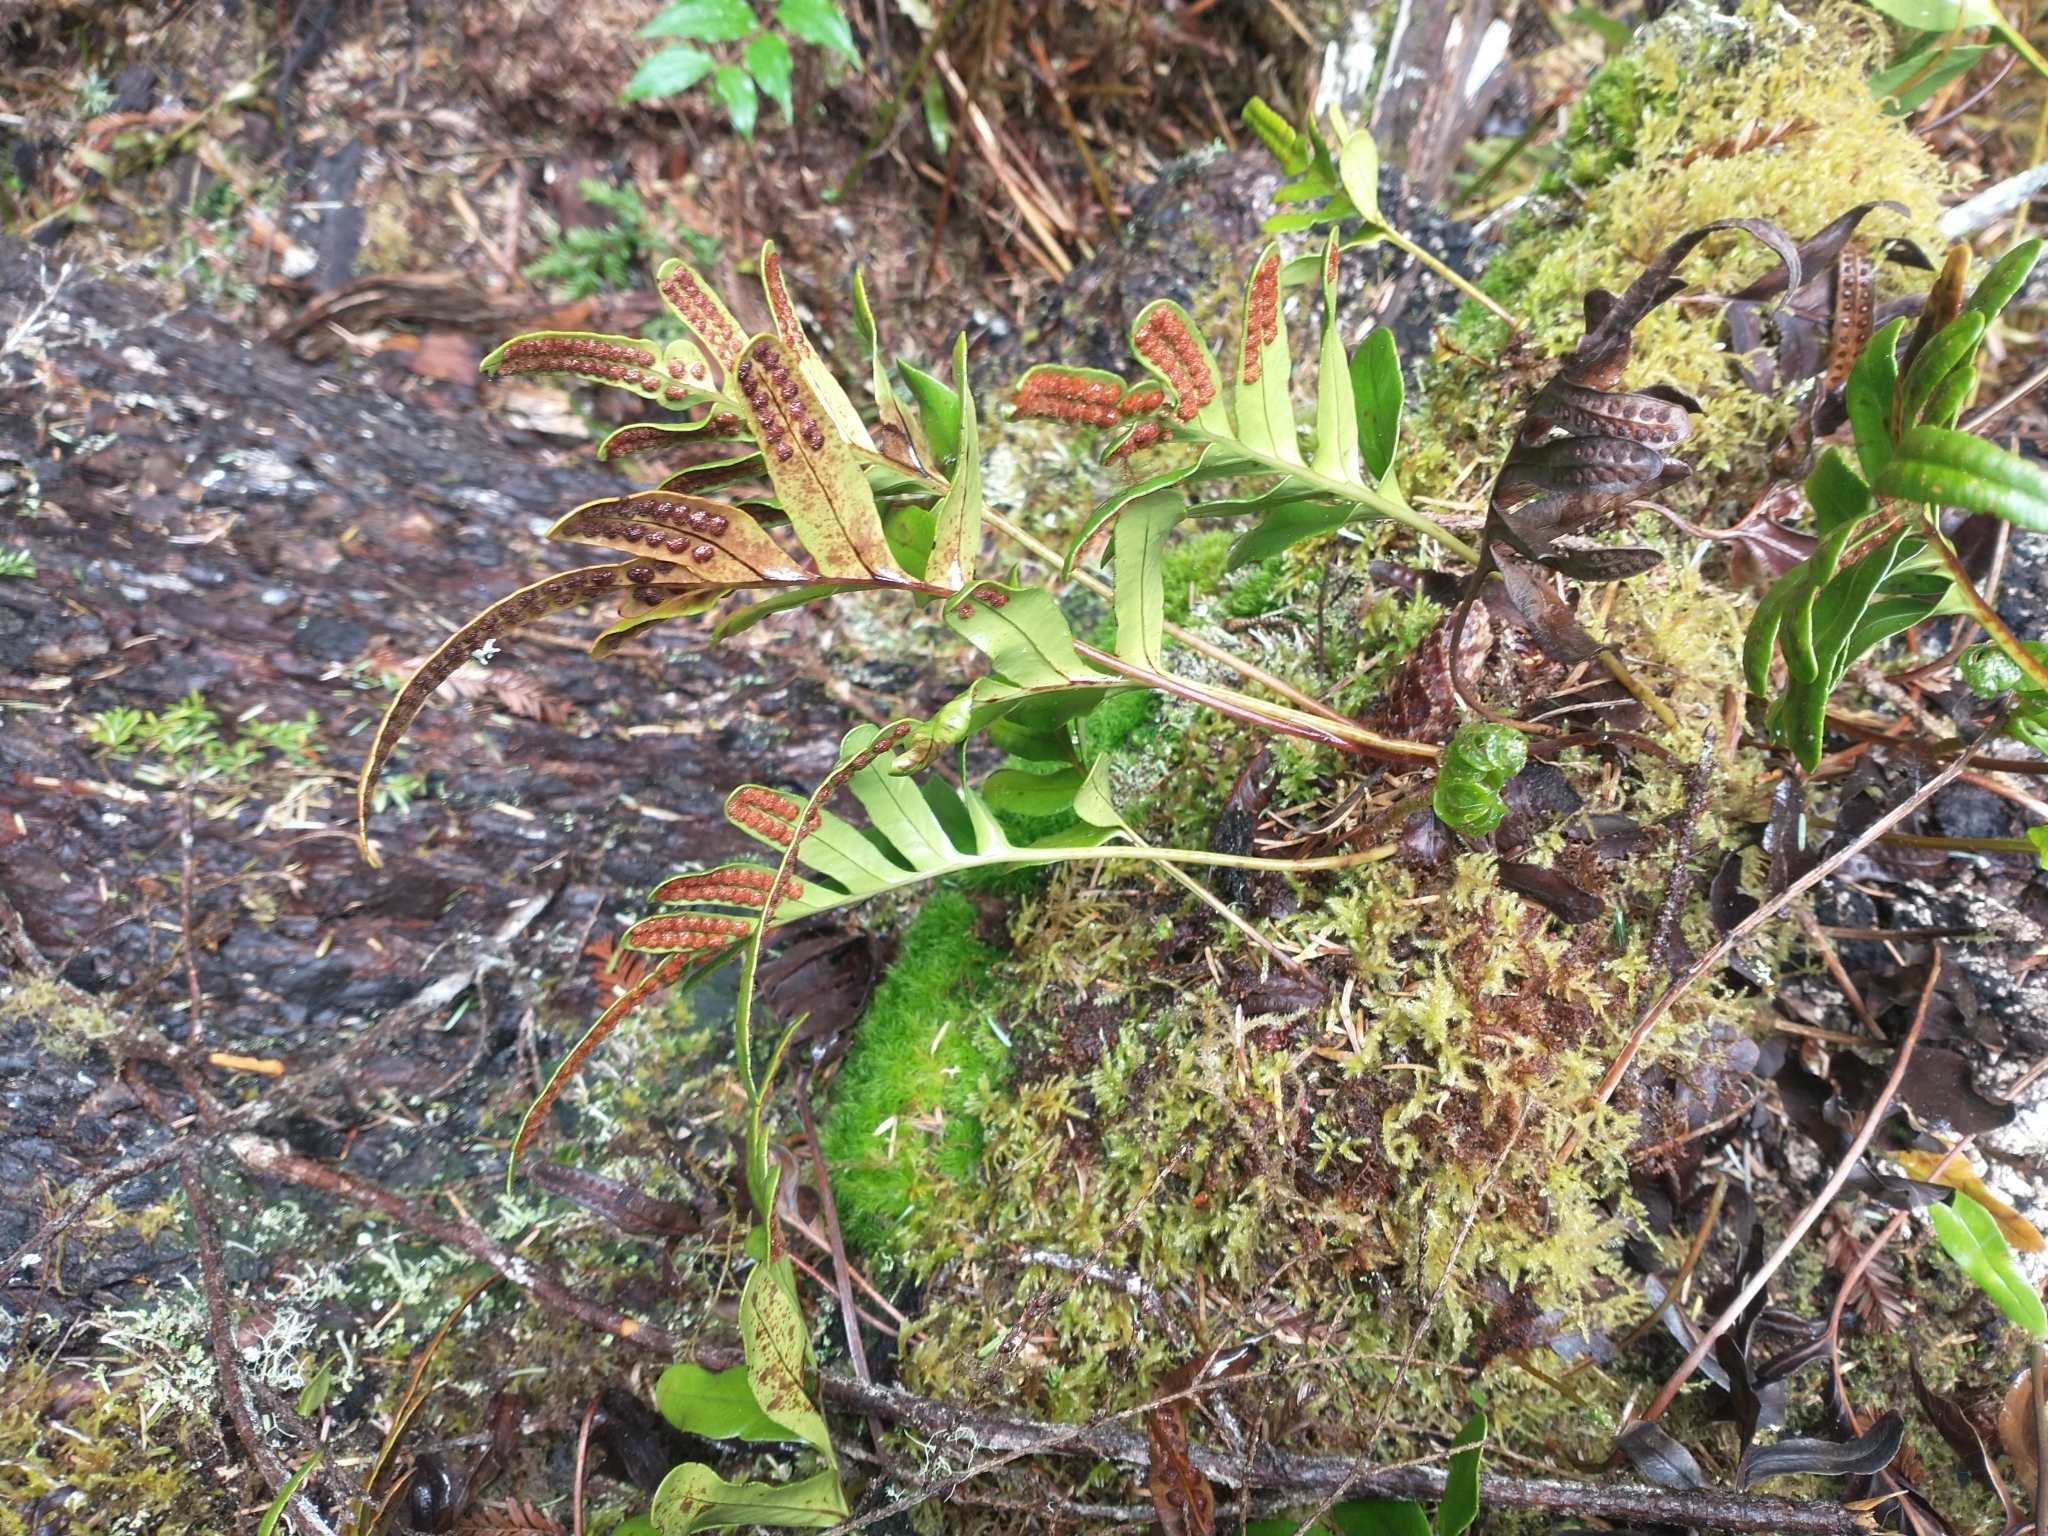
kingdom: Plantae
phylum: Tracheophyta
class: Polypodiopsida
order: Polypodiales
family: Polypodiaceae
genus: Polypodium
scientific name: Polypodium scouleri
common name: Scouler's polypody
